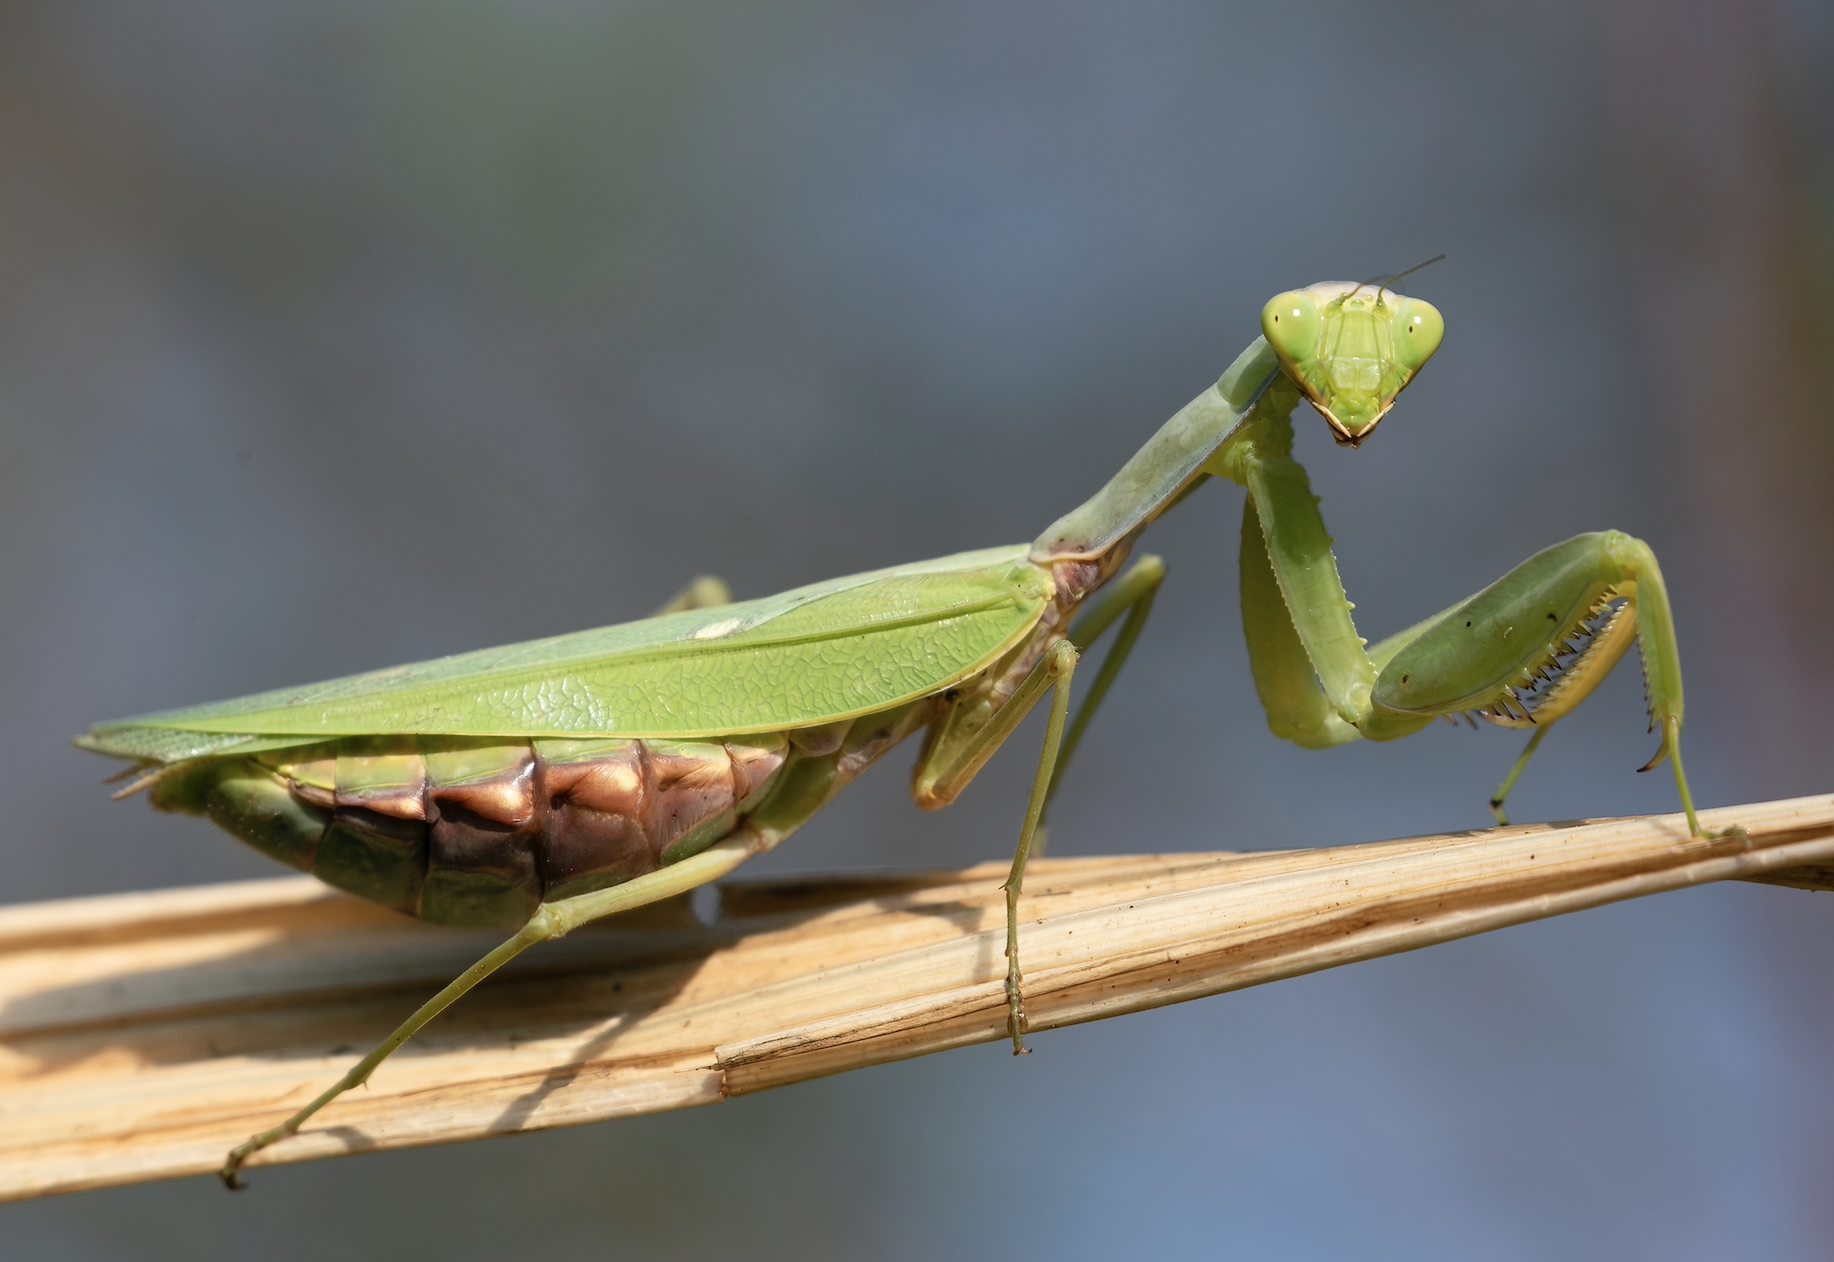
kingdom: Animalia
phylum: Arthropoda
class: Insecta
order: Mantodea
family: Mantidae
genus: Hierodula
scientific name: Hierodula transcaucasica
